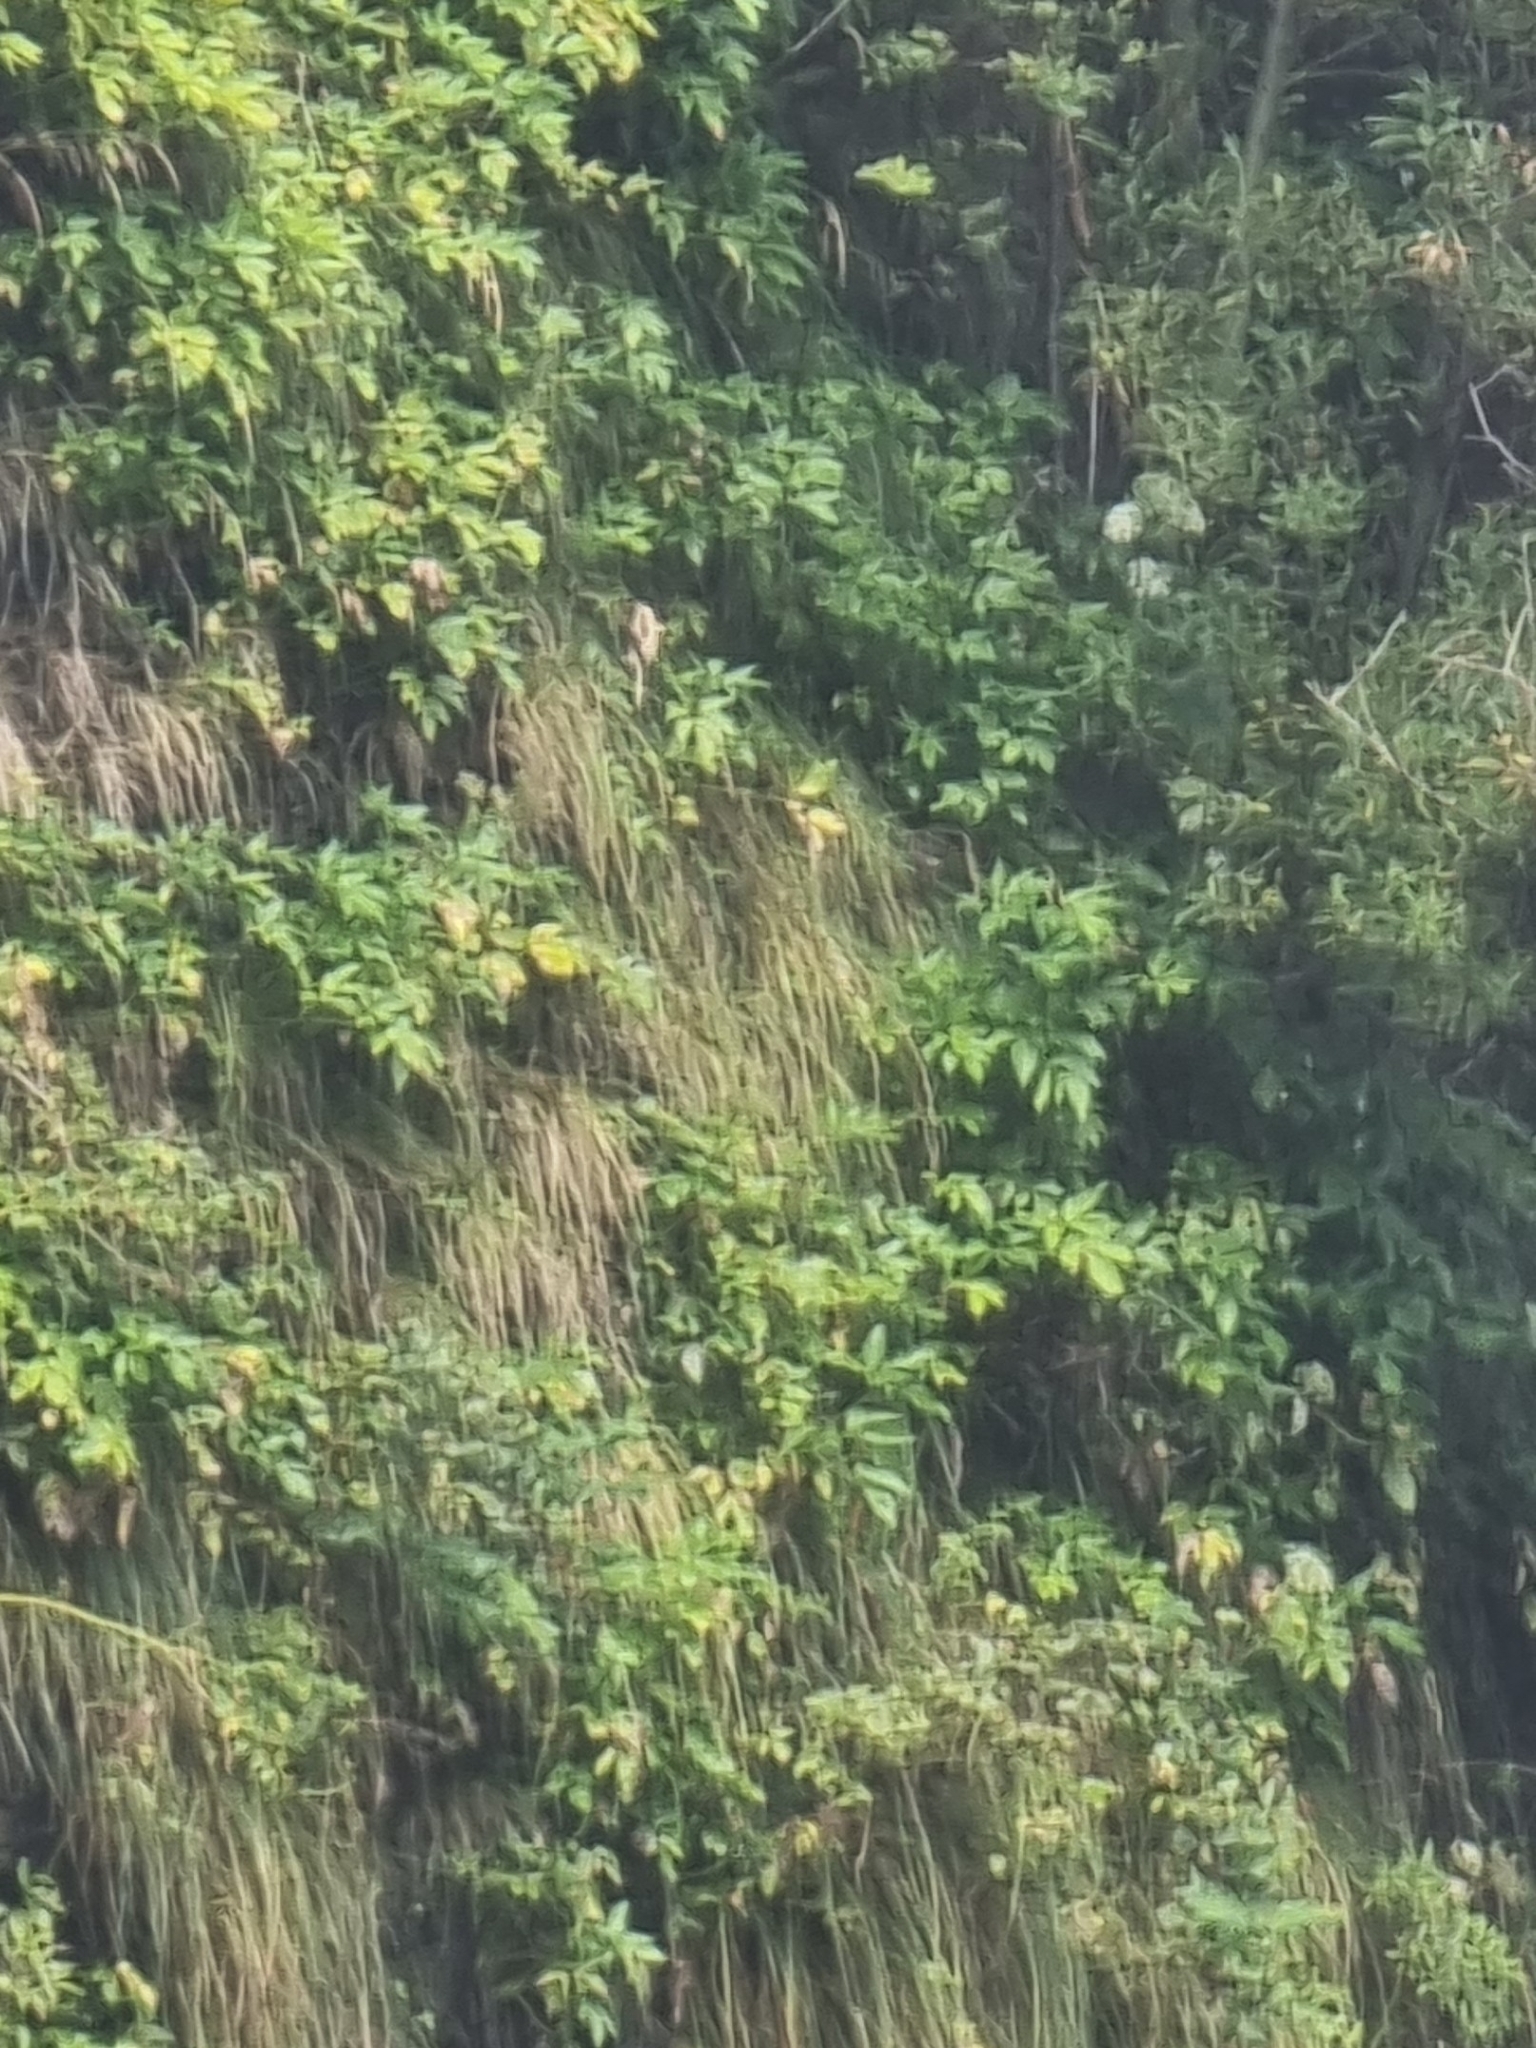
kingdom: Plantae
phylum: Tracheophyta
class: Magnoliopsida
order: Apiales
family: Apiaceae
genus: Imperatoria
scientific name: Imperatoria lowei
